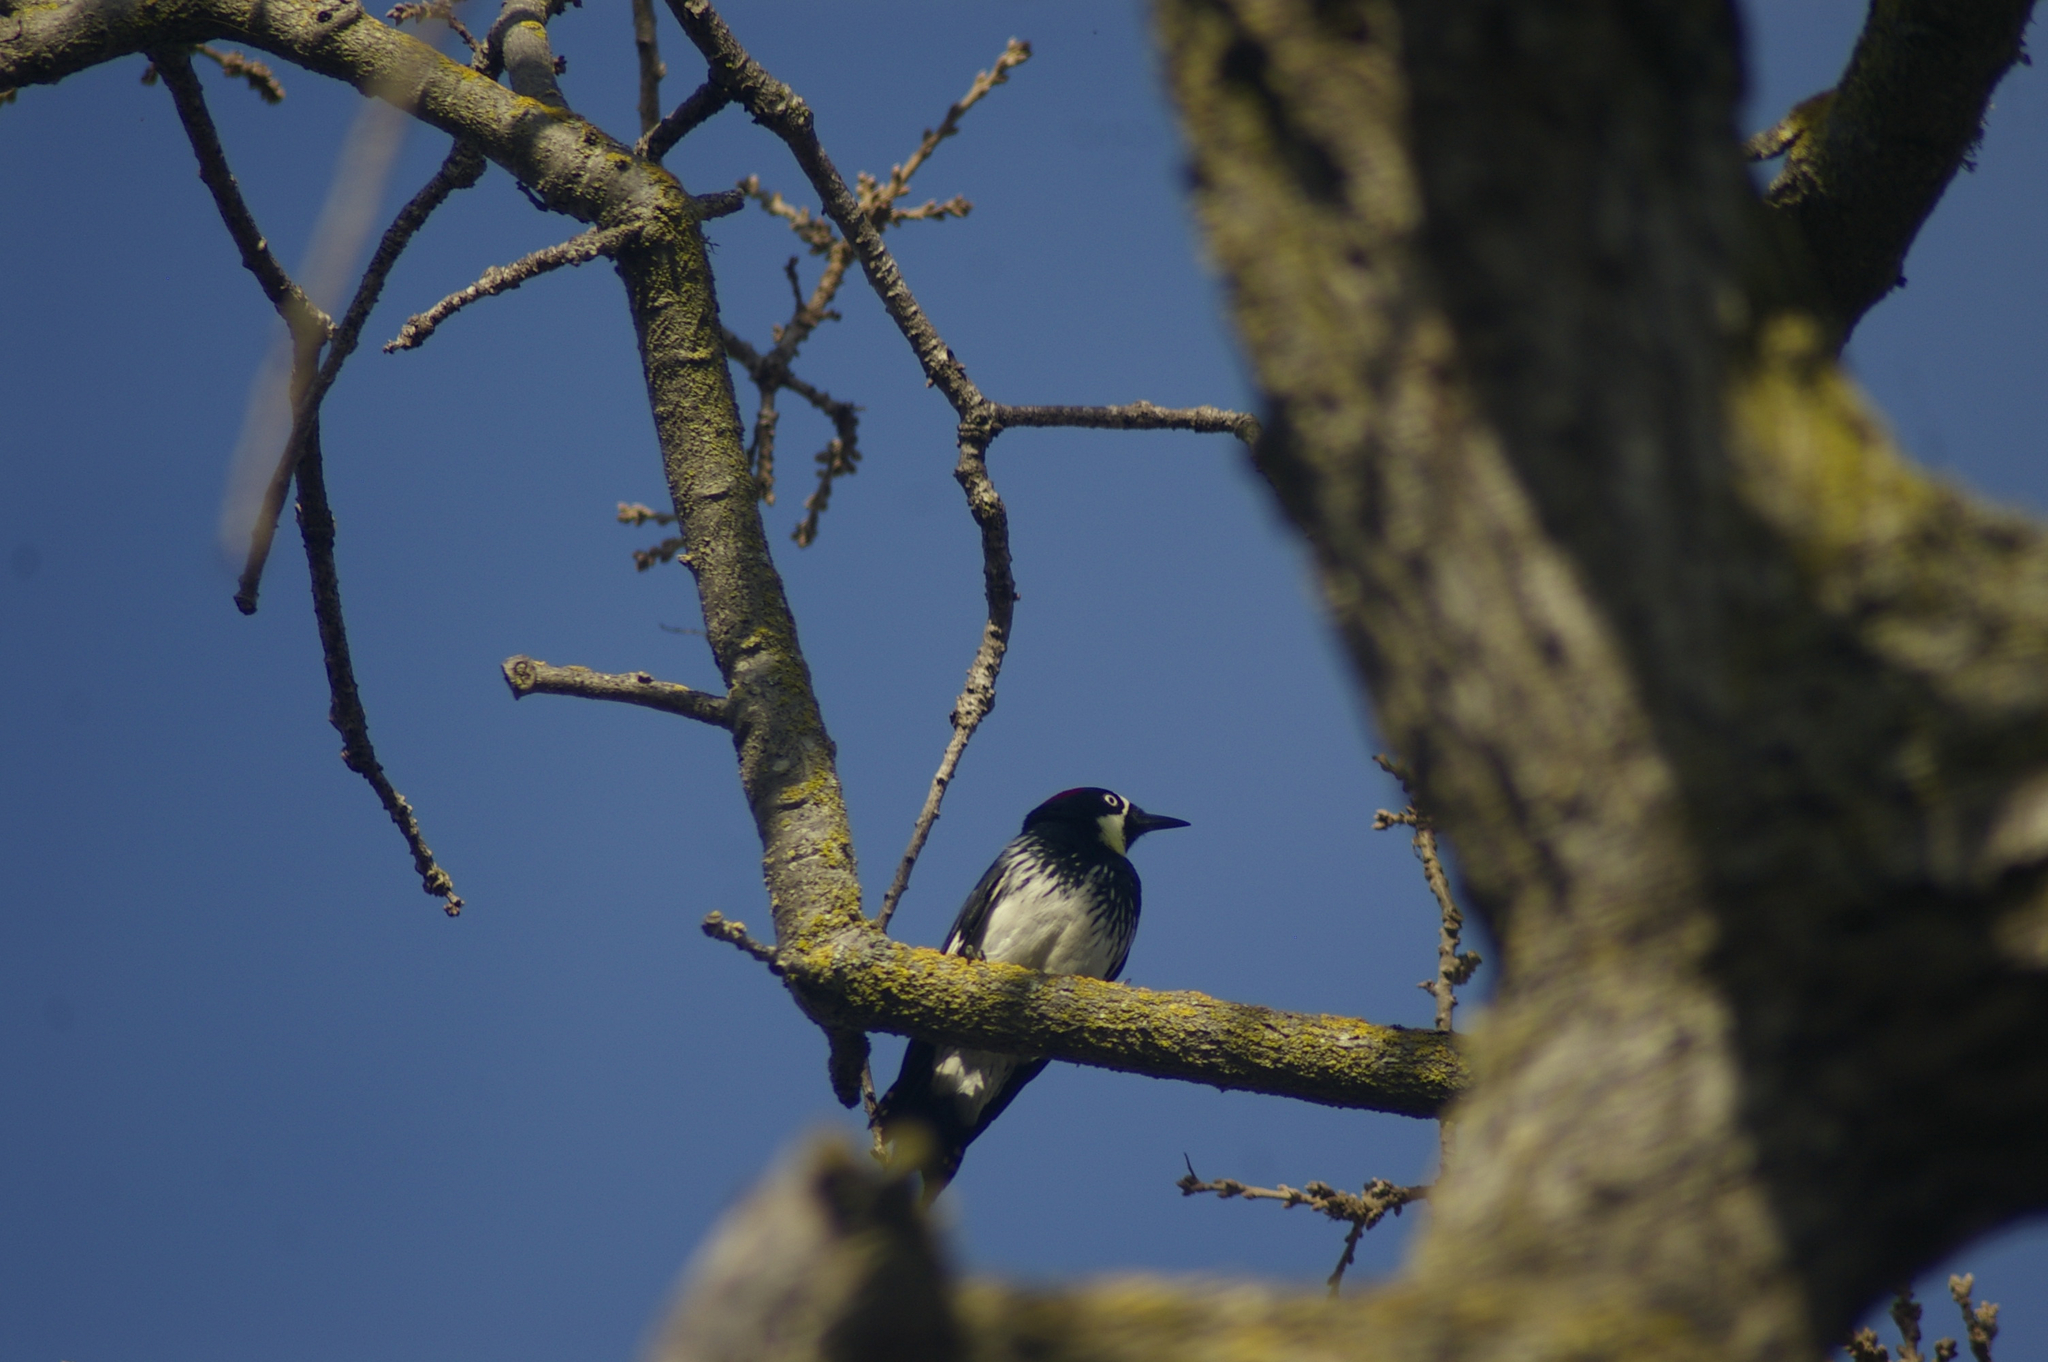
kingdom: Animalia
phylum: Chordata
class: Aves
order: Piciformes
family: Picidae
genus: Melanerpes
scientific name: Melanerpes formicivorus
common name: Acorn woodpecker
